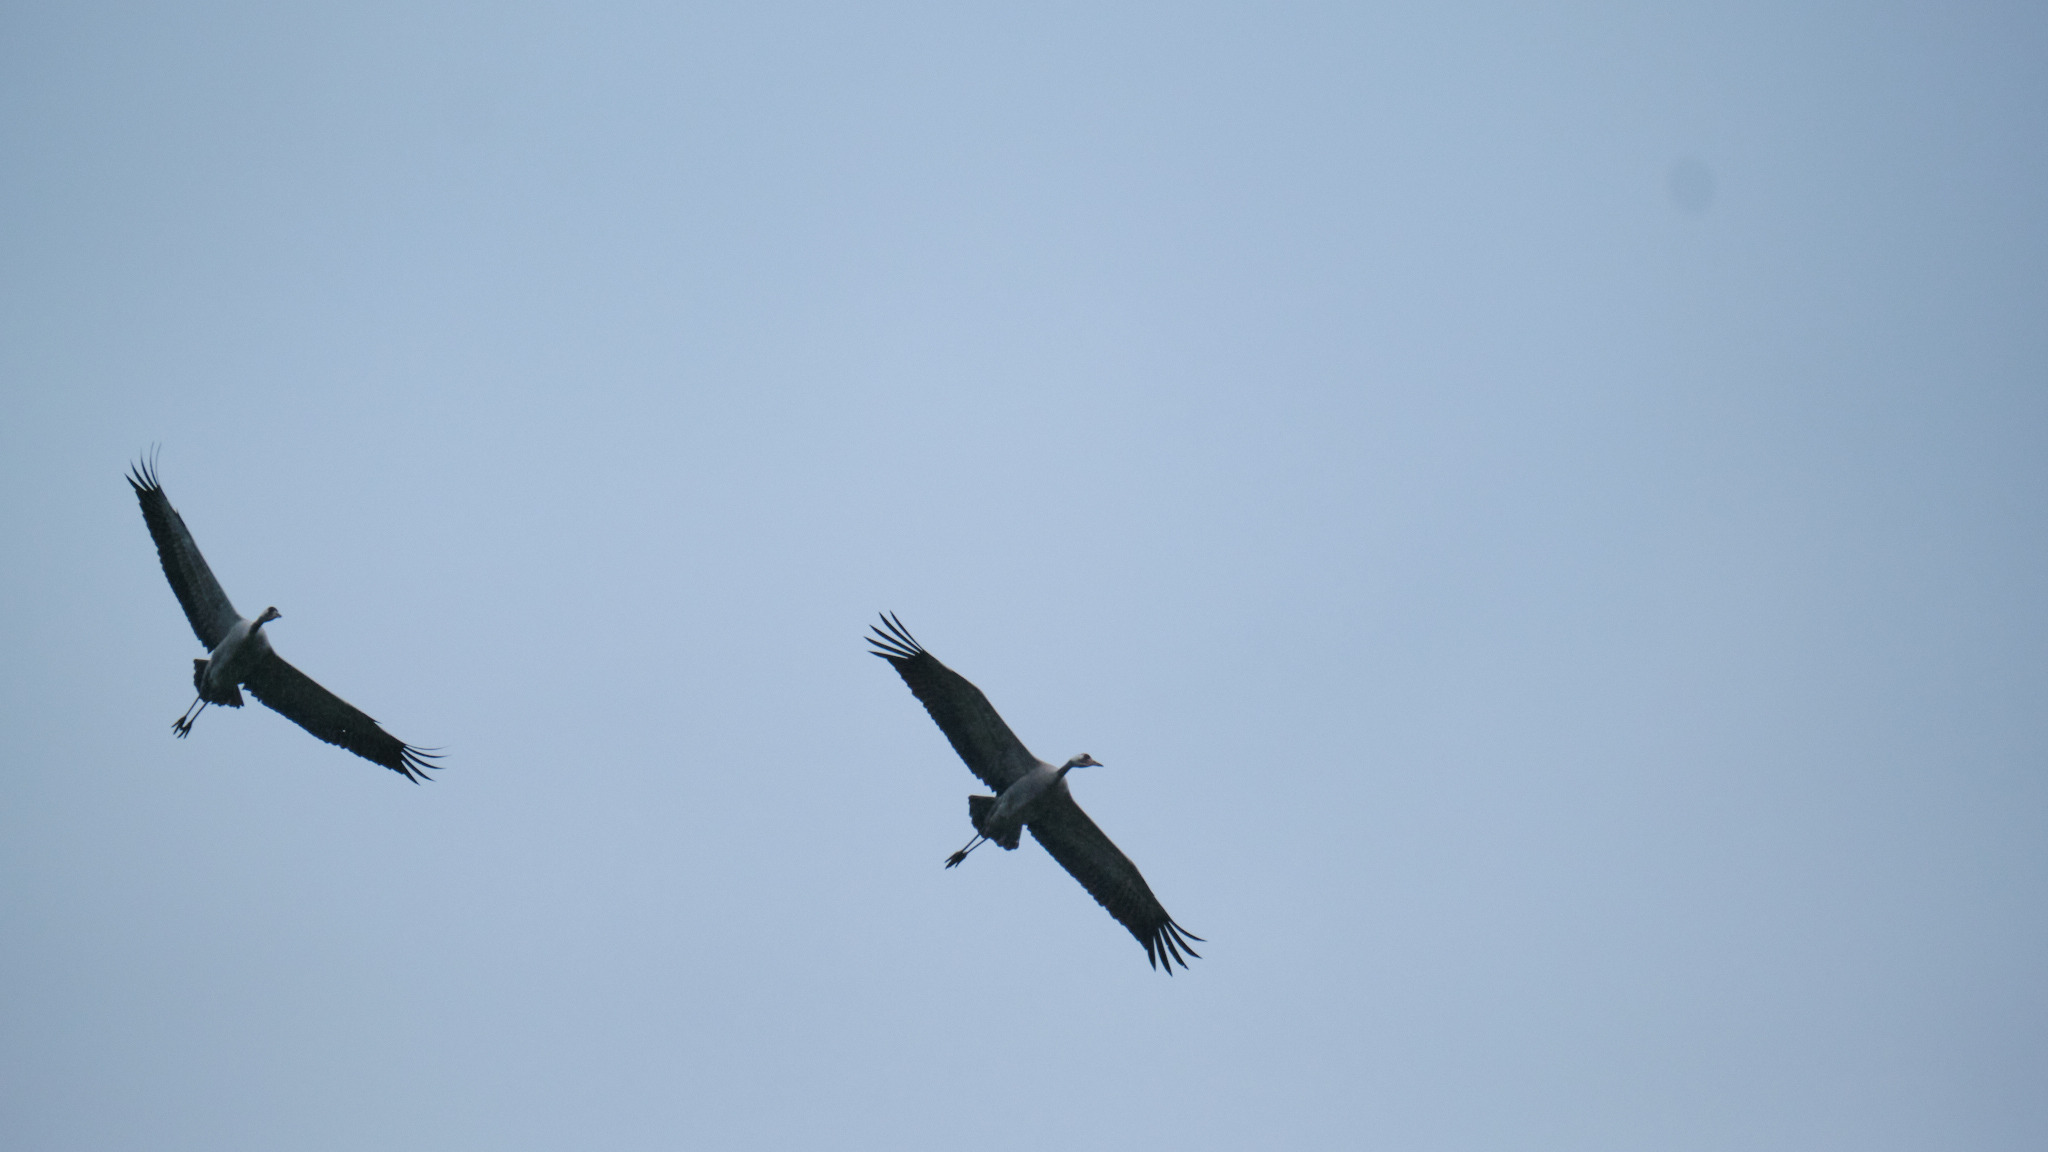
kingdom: Animalia
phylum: Chordata
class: Aves
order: Gruiformes
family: Gruidae
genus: Grus
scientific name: Grus grus
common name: Common crane
